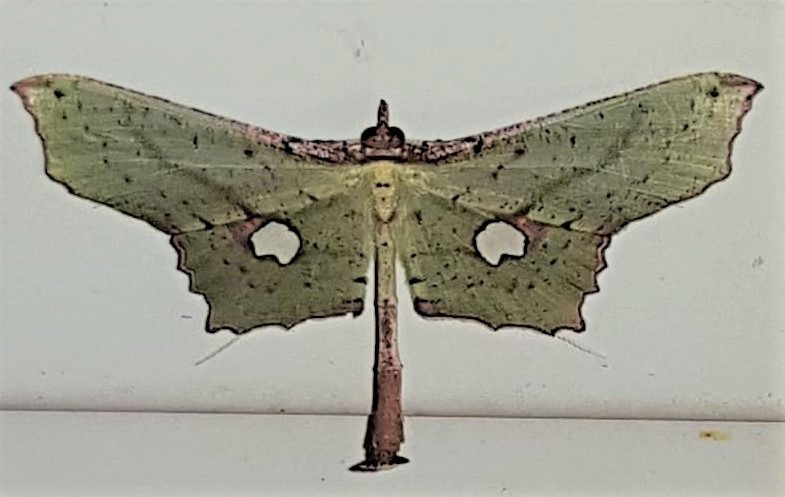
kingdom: Animalia
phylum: Arthropoda
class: Insecta
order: Lepidoptera
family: Geometridae
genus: Macrotes
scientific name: Macrotes commatica
